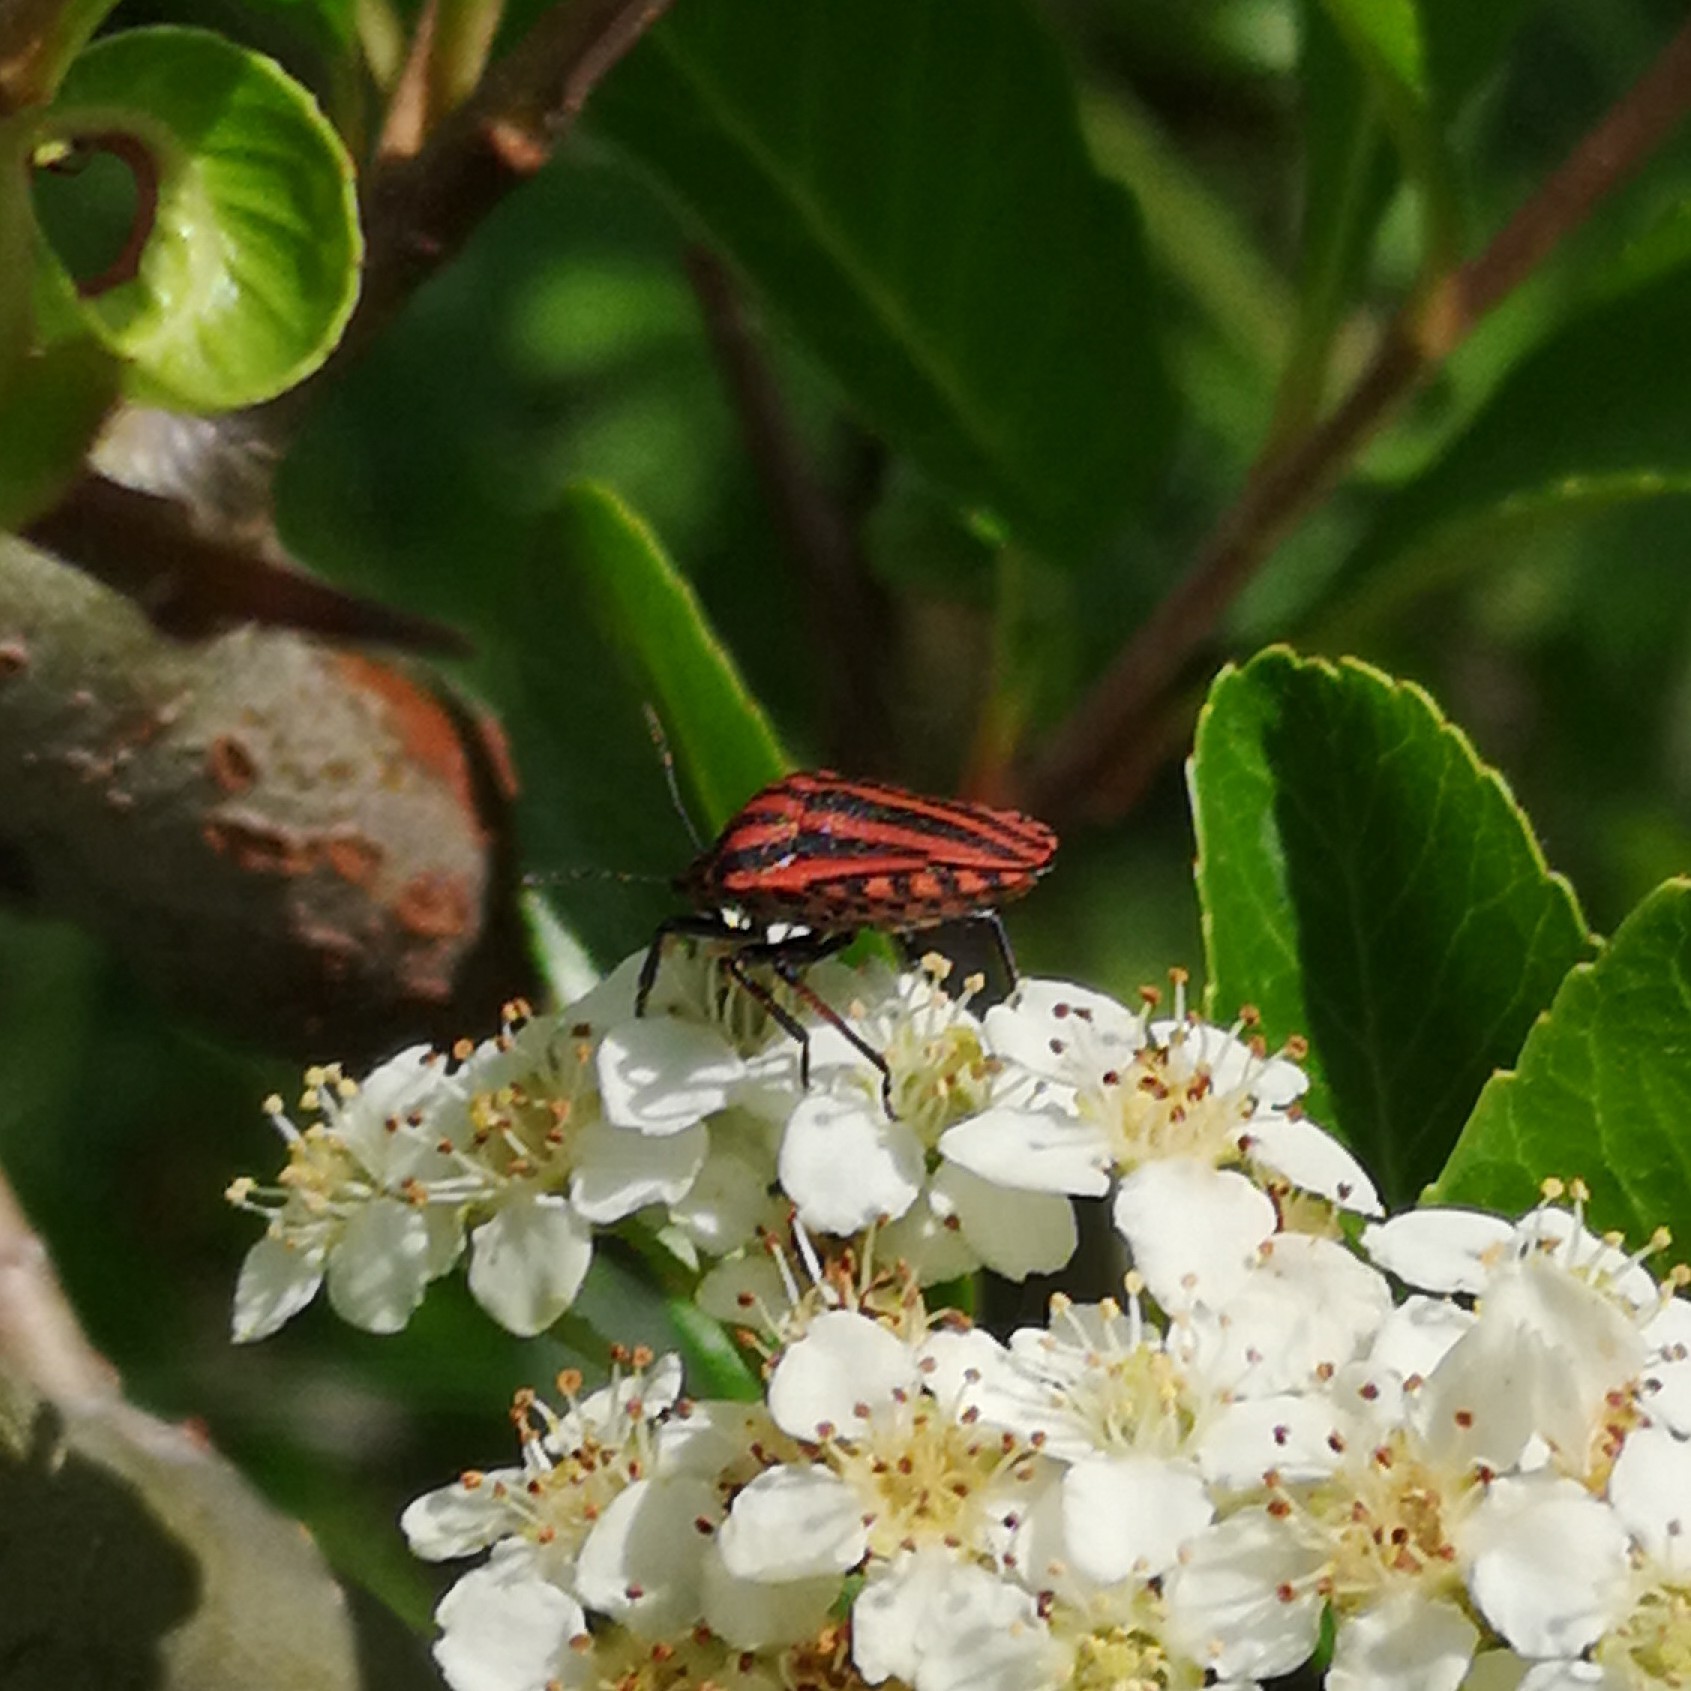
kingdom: Animalia
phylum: Arthropoda
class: Insecta
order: Hemiptera
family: Pentatomidae
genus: Graphosoma
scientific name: Graphosoma italicum
